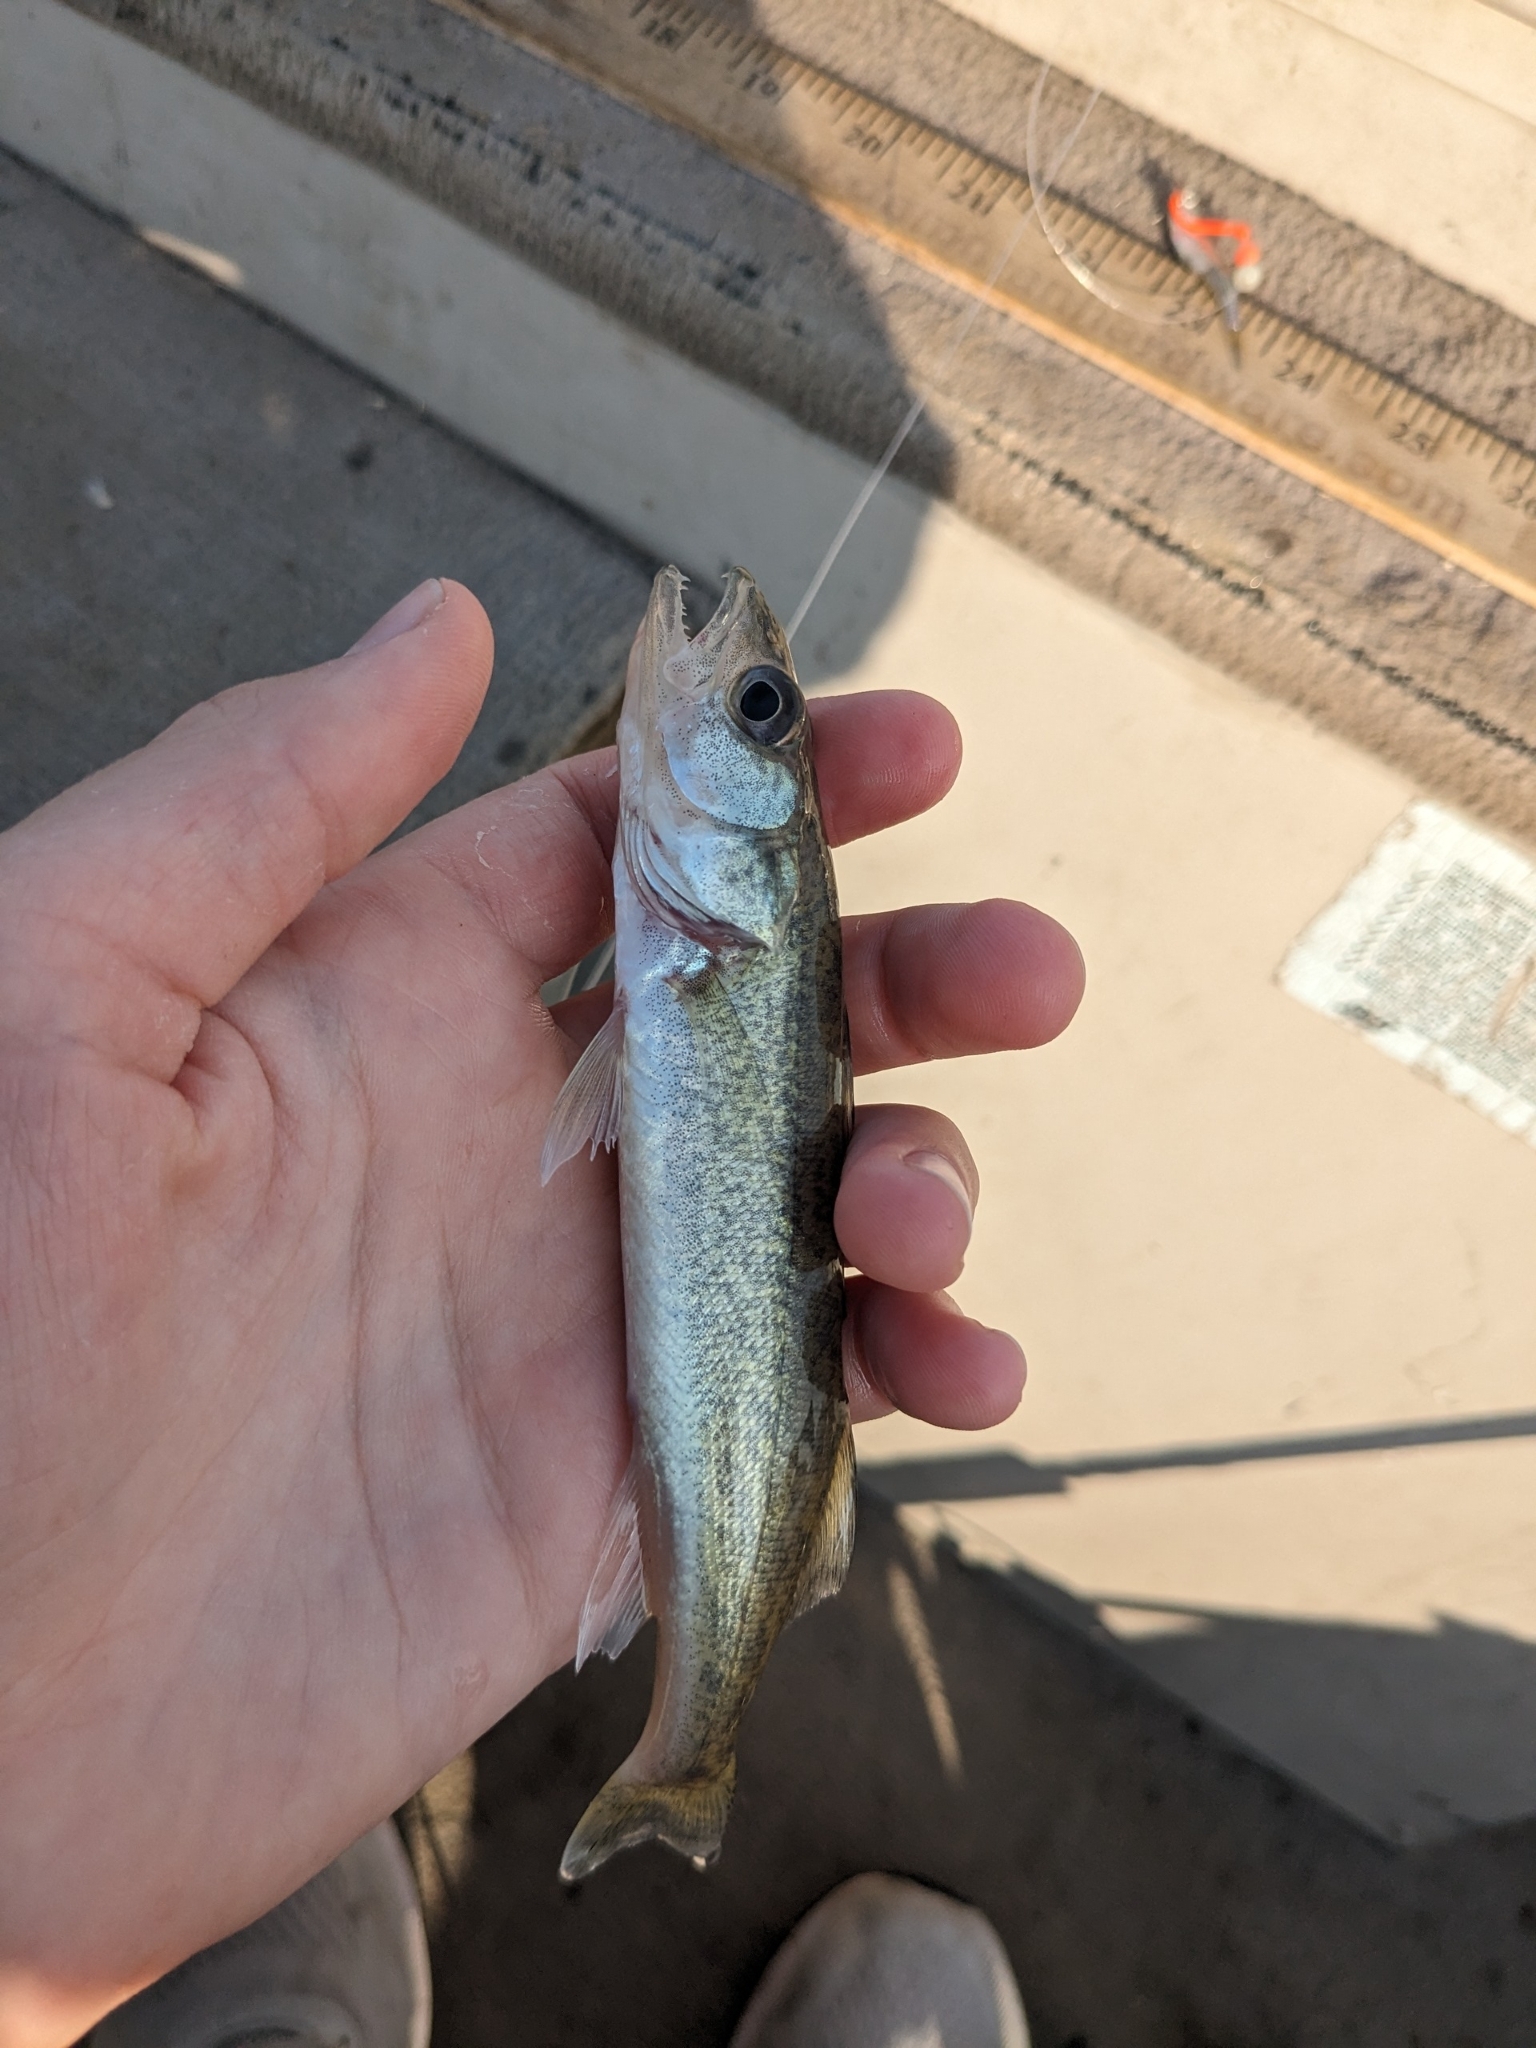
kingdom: Animalia
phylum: Chordata
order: Perciformes
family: Percidae
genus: Sander
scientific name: Sander vitreus
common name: Walleye
